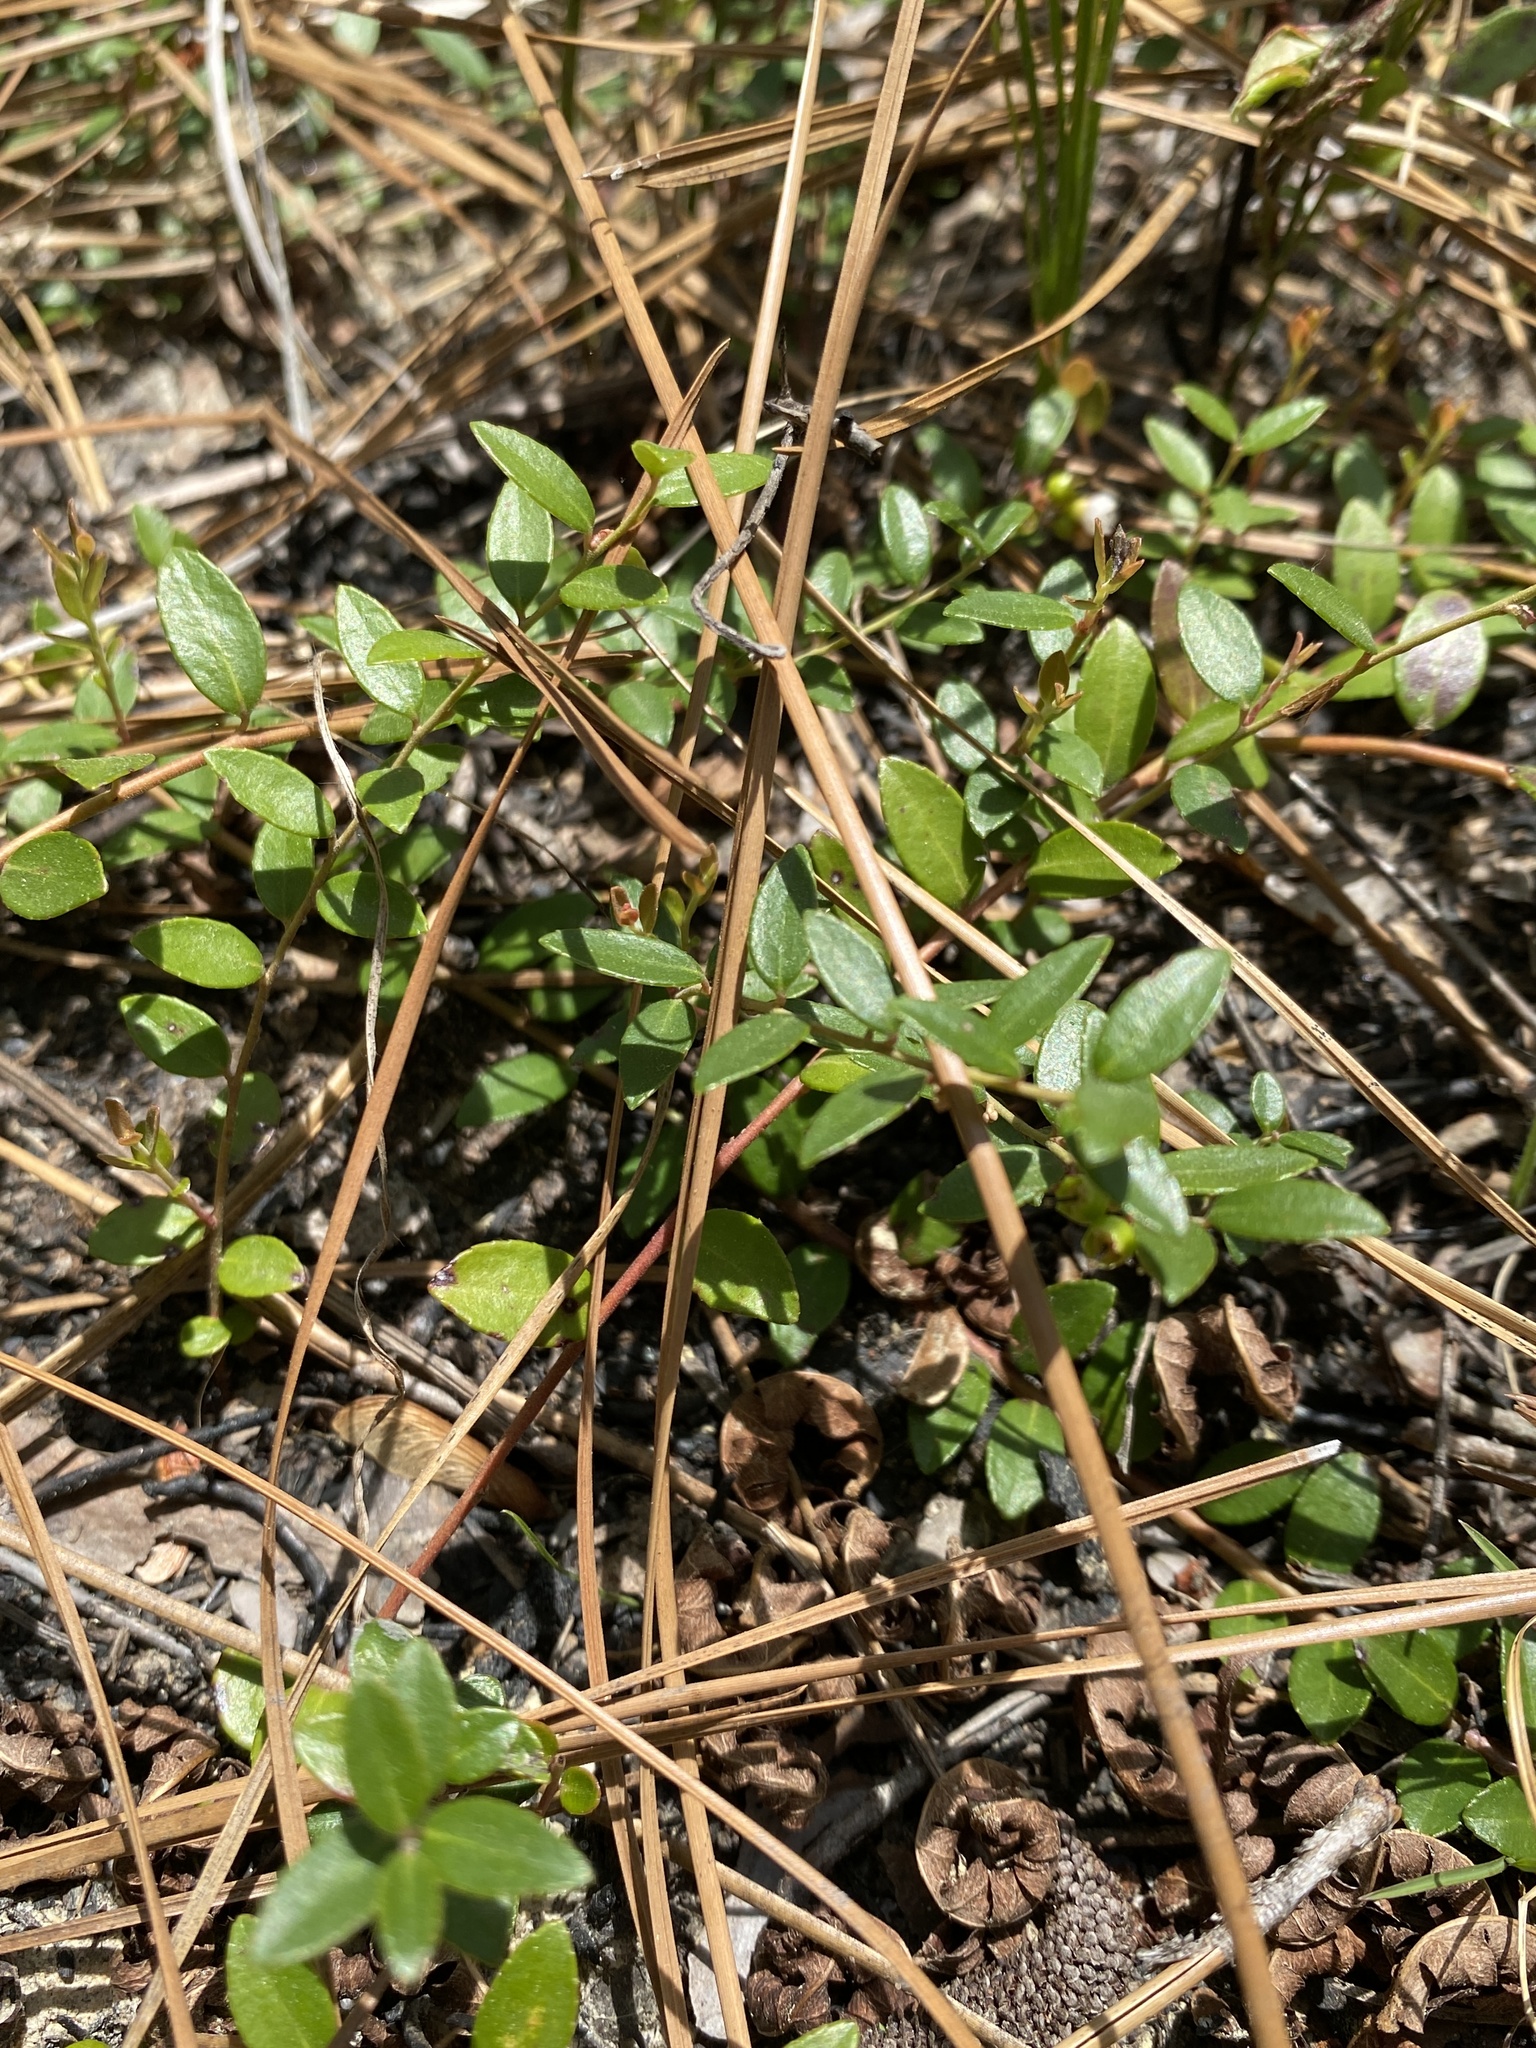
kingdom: Plantae
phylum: Tracheophyta
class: Magnoliopsida
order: Ericales
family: Ericaceae
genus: Vaccinium
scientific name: Vaccinium crassifolium
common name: Creeping blueberry
